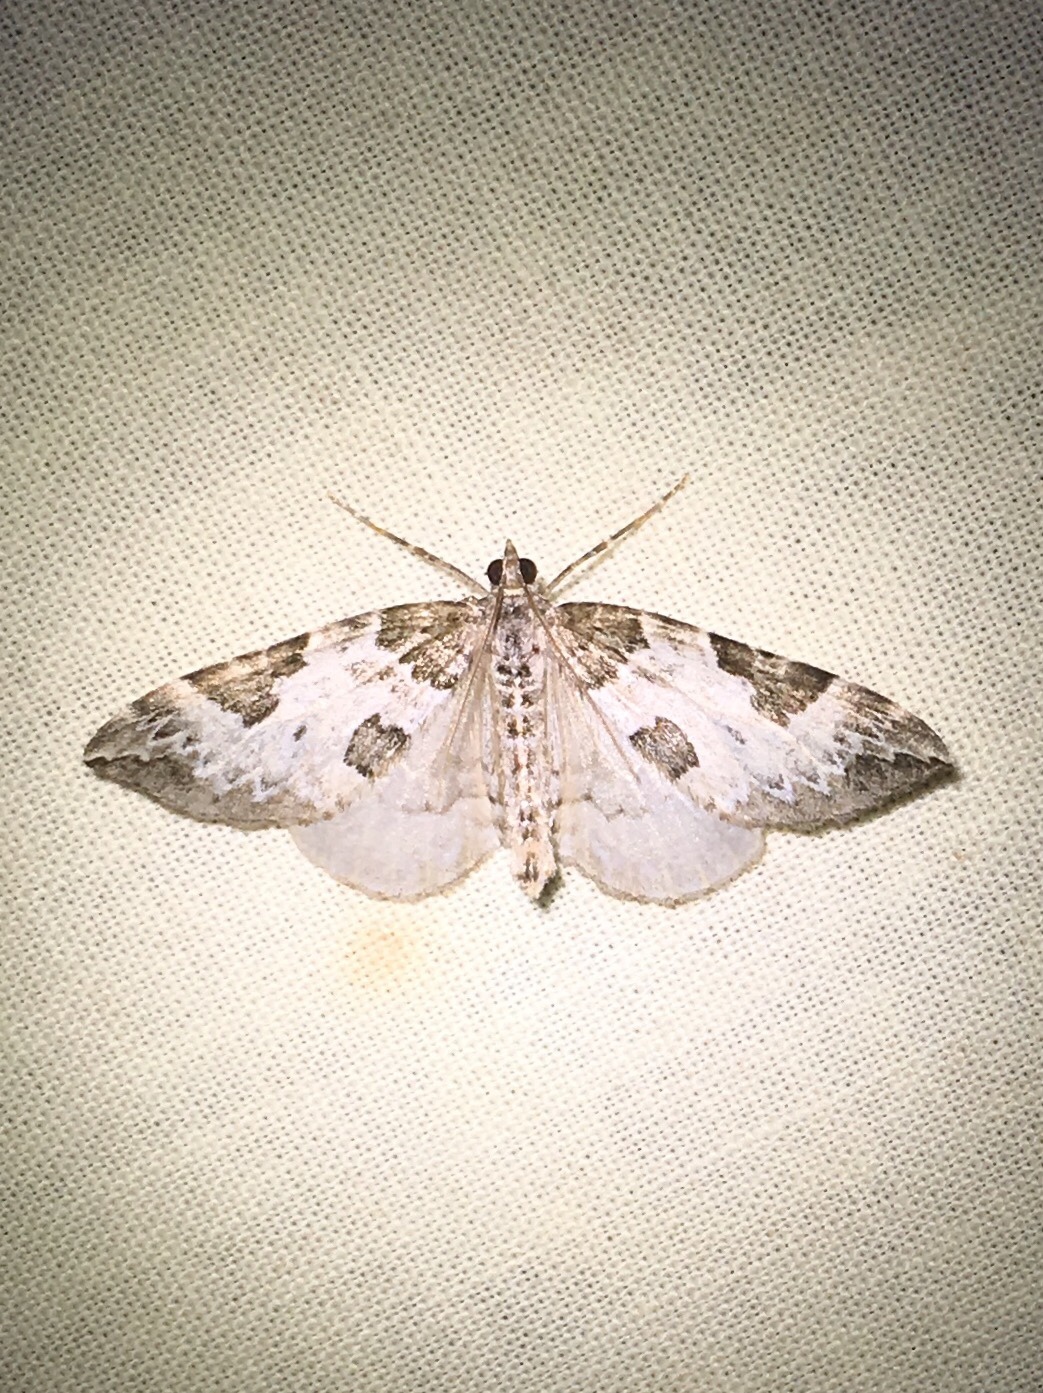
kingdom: Animalia
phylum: Arthropoda
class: Insecta
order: Lepidoptera
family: Geometridae
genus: Eulithis
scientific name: Eulithis explanata
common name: White eulithis
